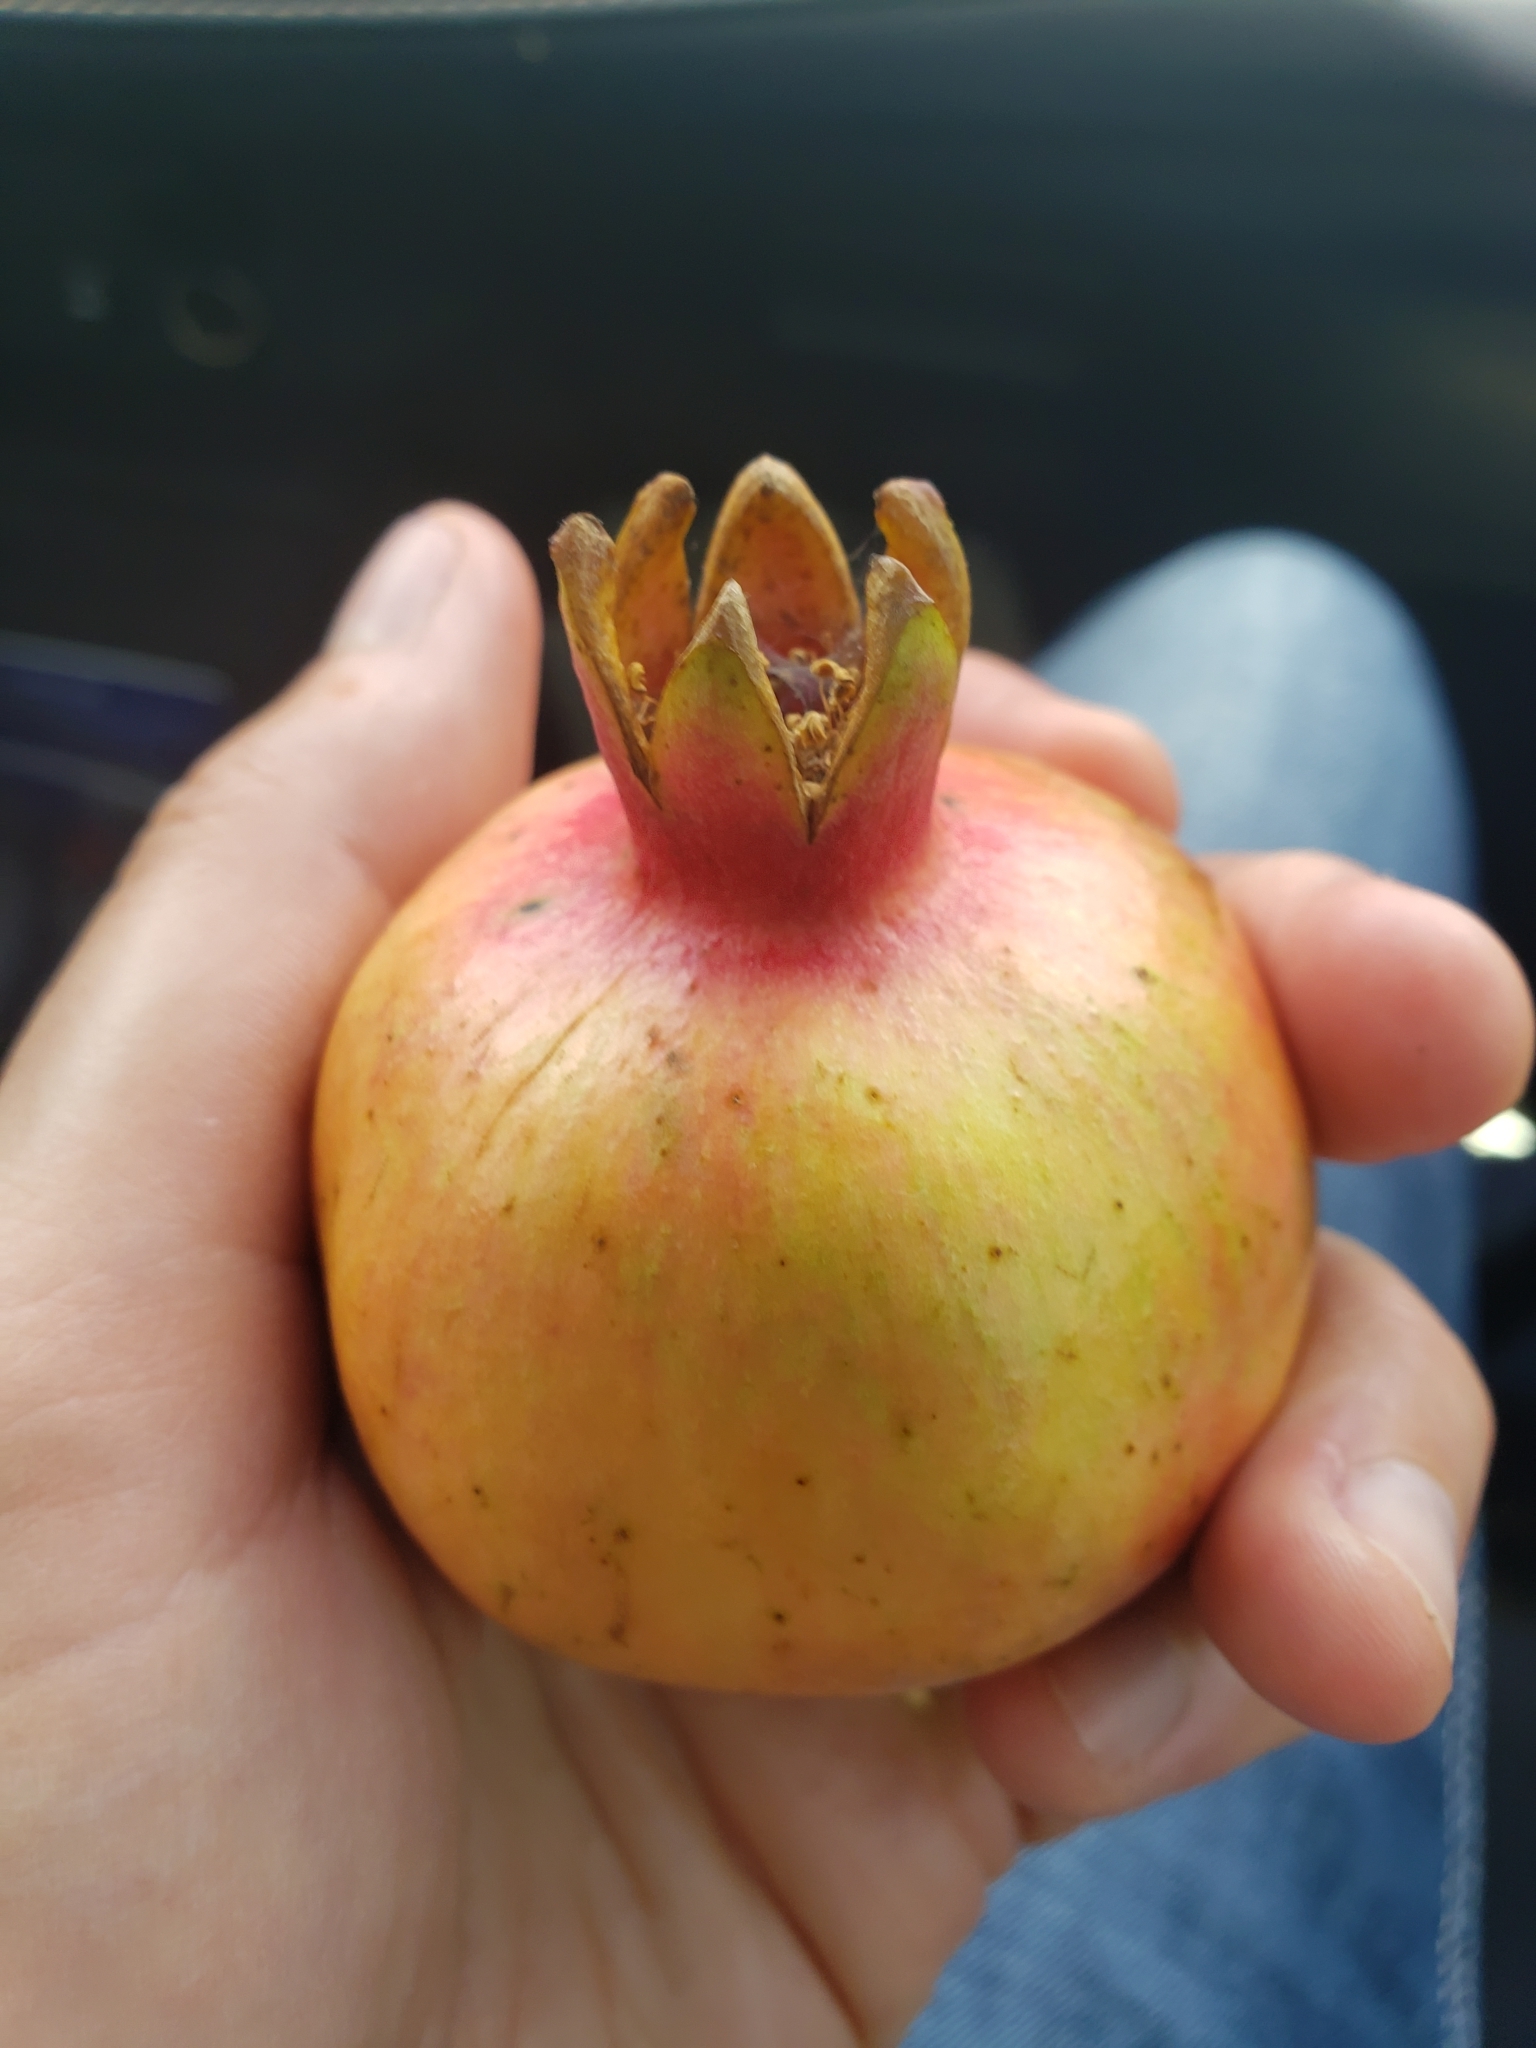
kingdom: Plantae
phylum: Tracheophyta
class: Magnoliopsida
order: Myrtales
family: Lythraceae
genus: Punica
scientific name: Punica granatum
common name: Pomegranate
